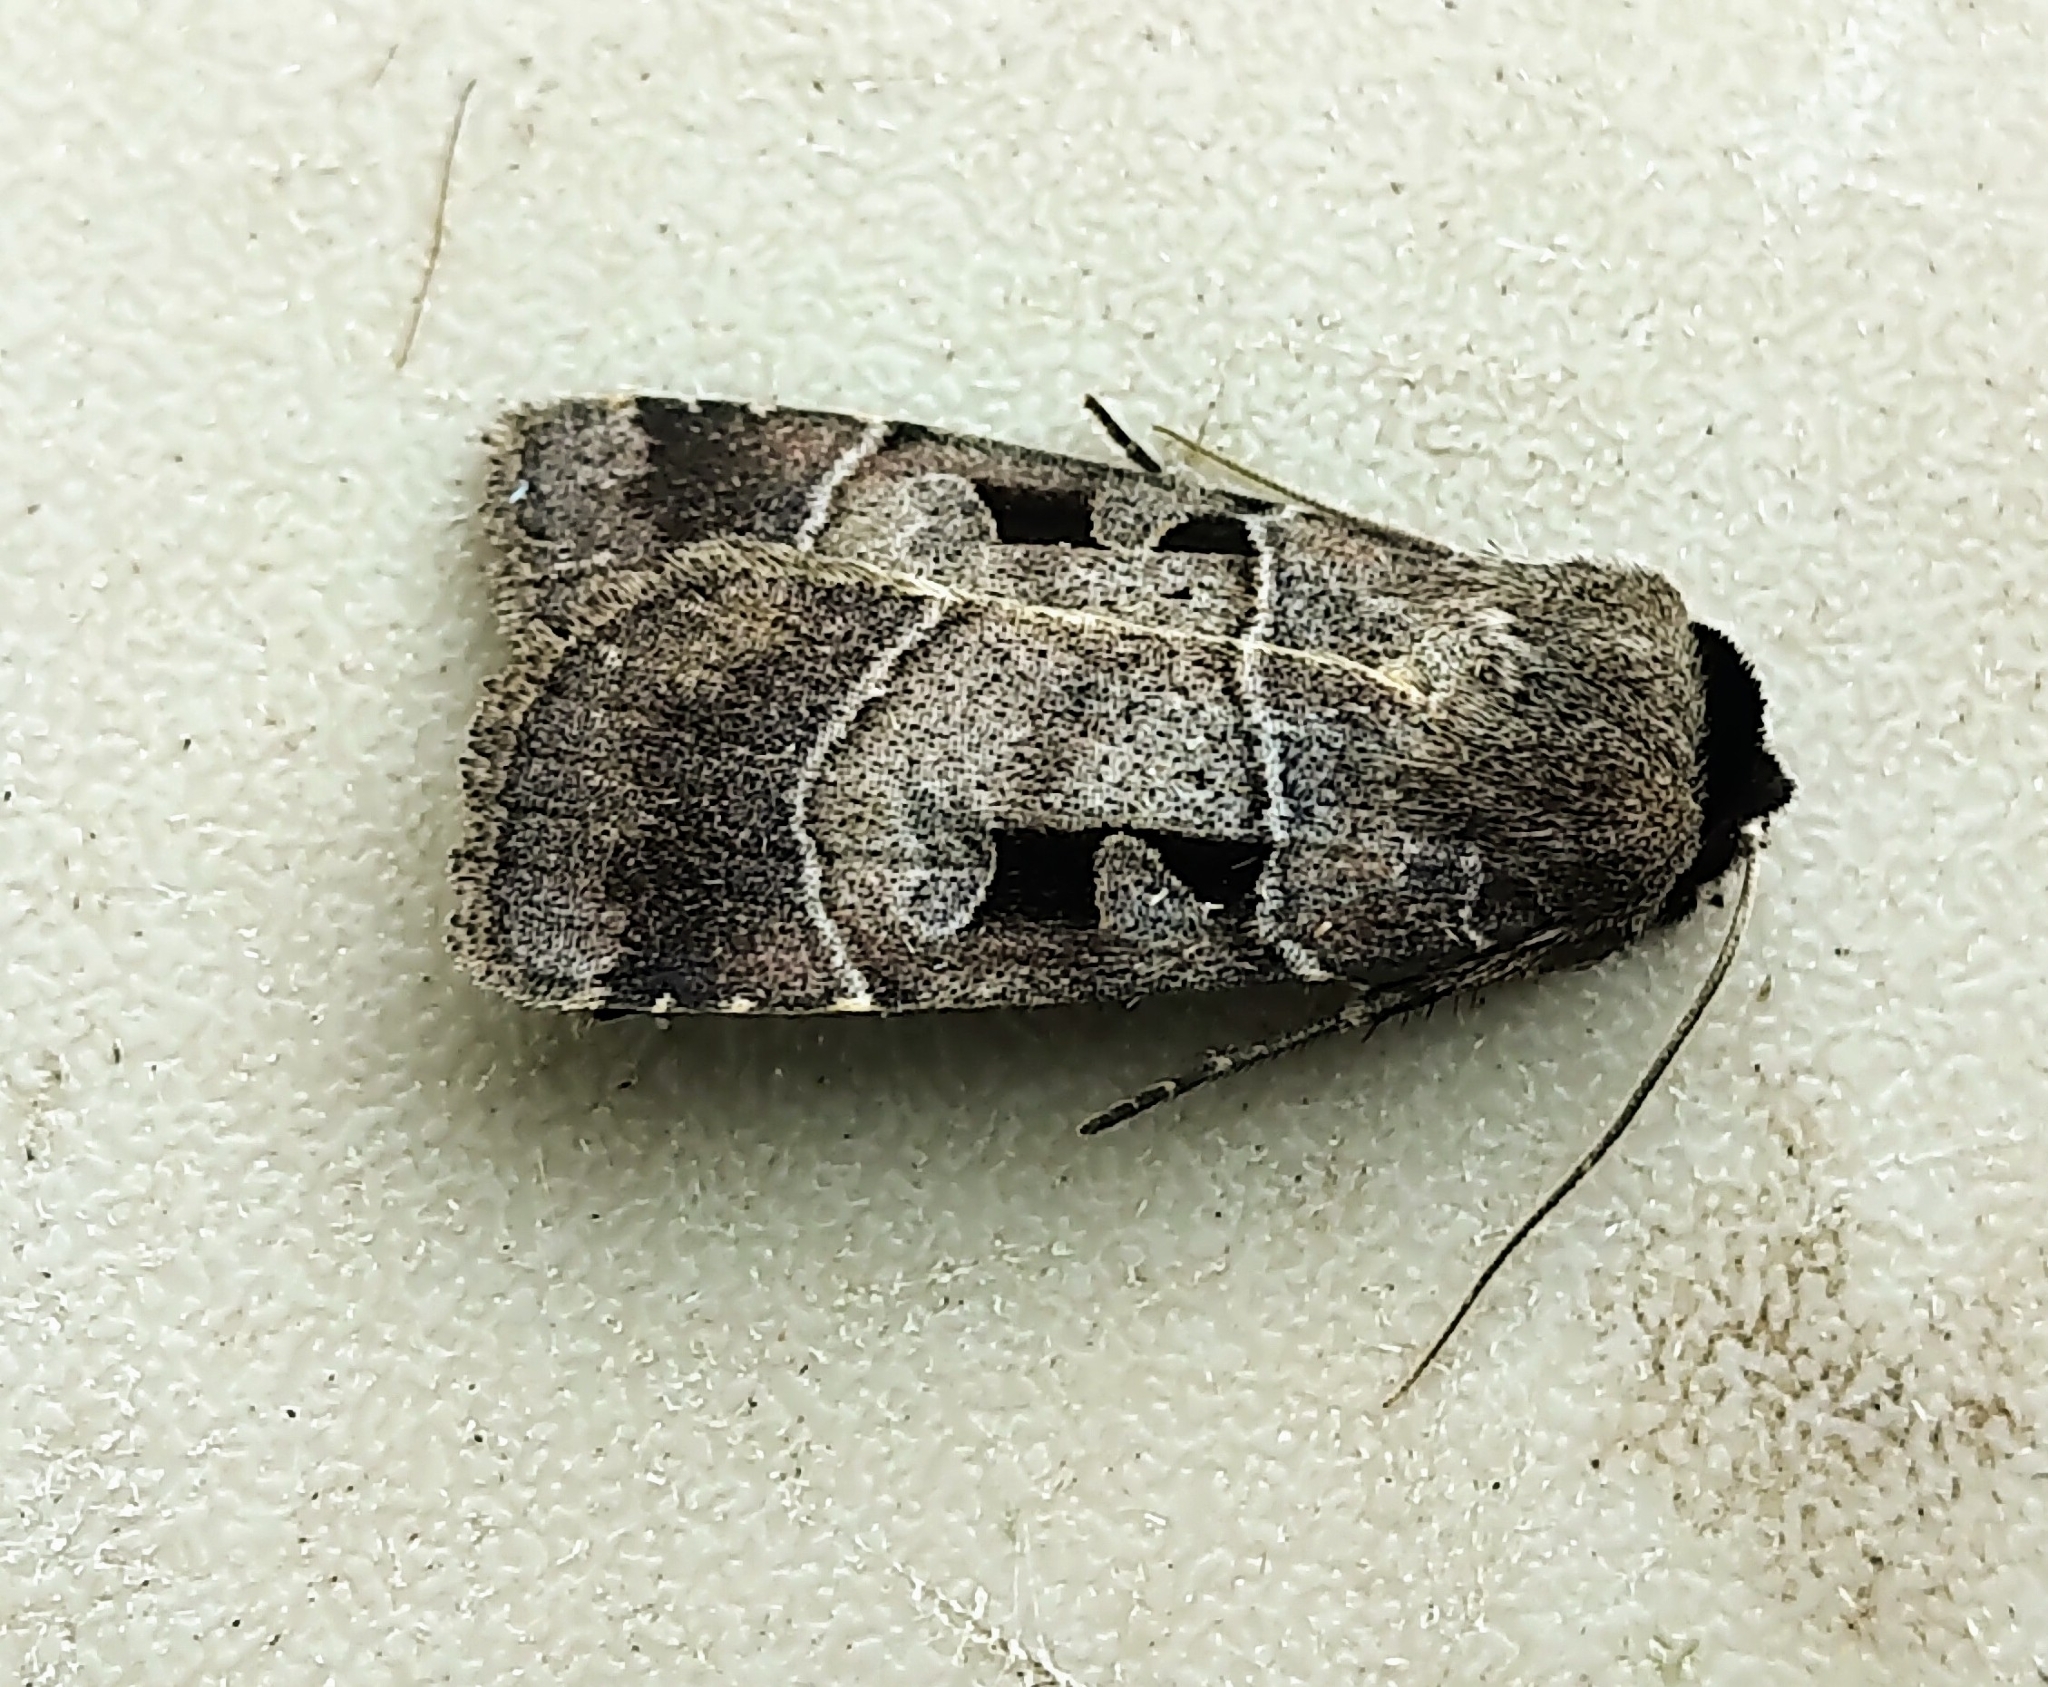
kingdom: Animalia
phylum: Arthropoda
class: Insecta
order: Lepidoptera
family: Noctuidae
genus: Agnorisma
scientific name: Agnorisma bugrai
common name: Collared dart
